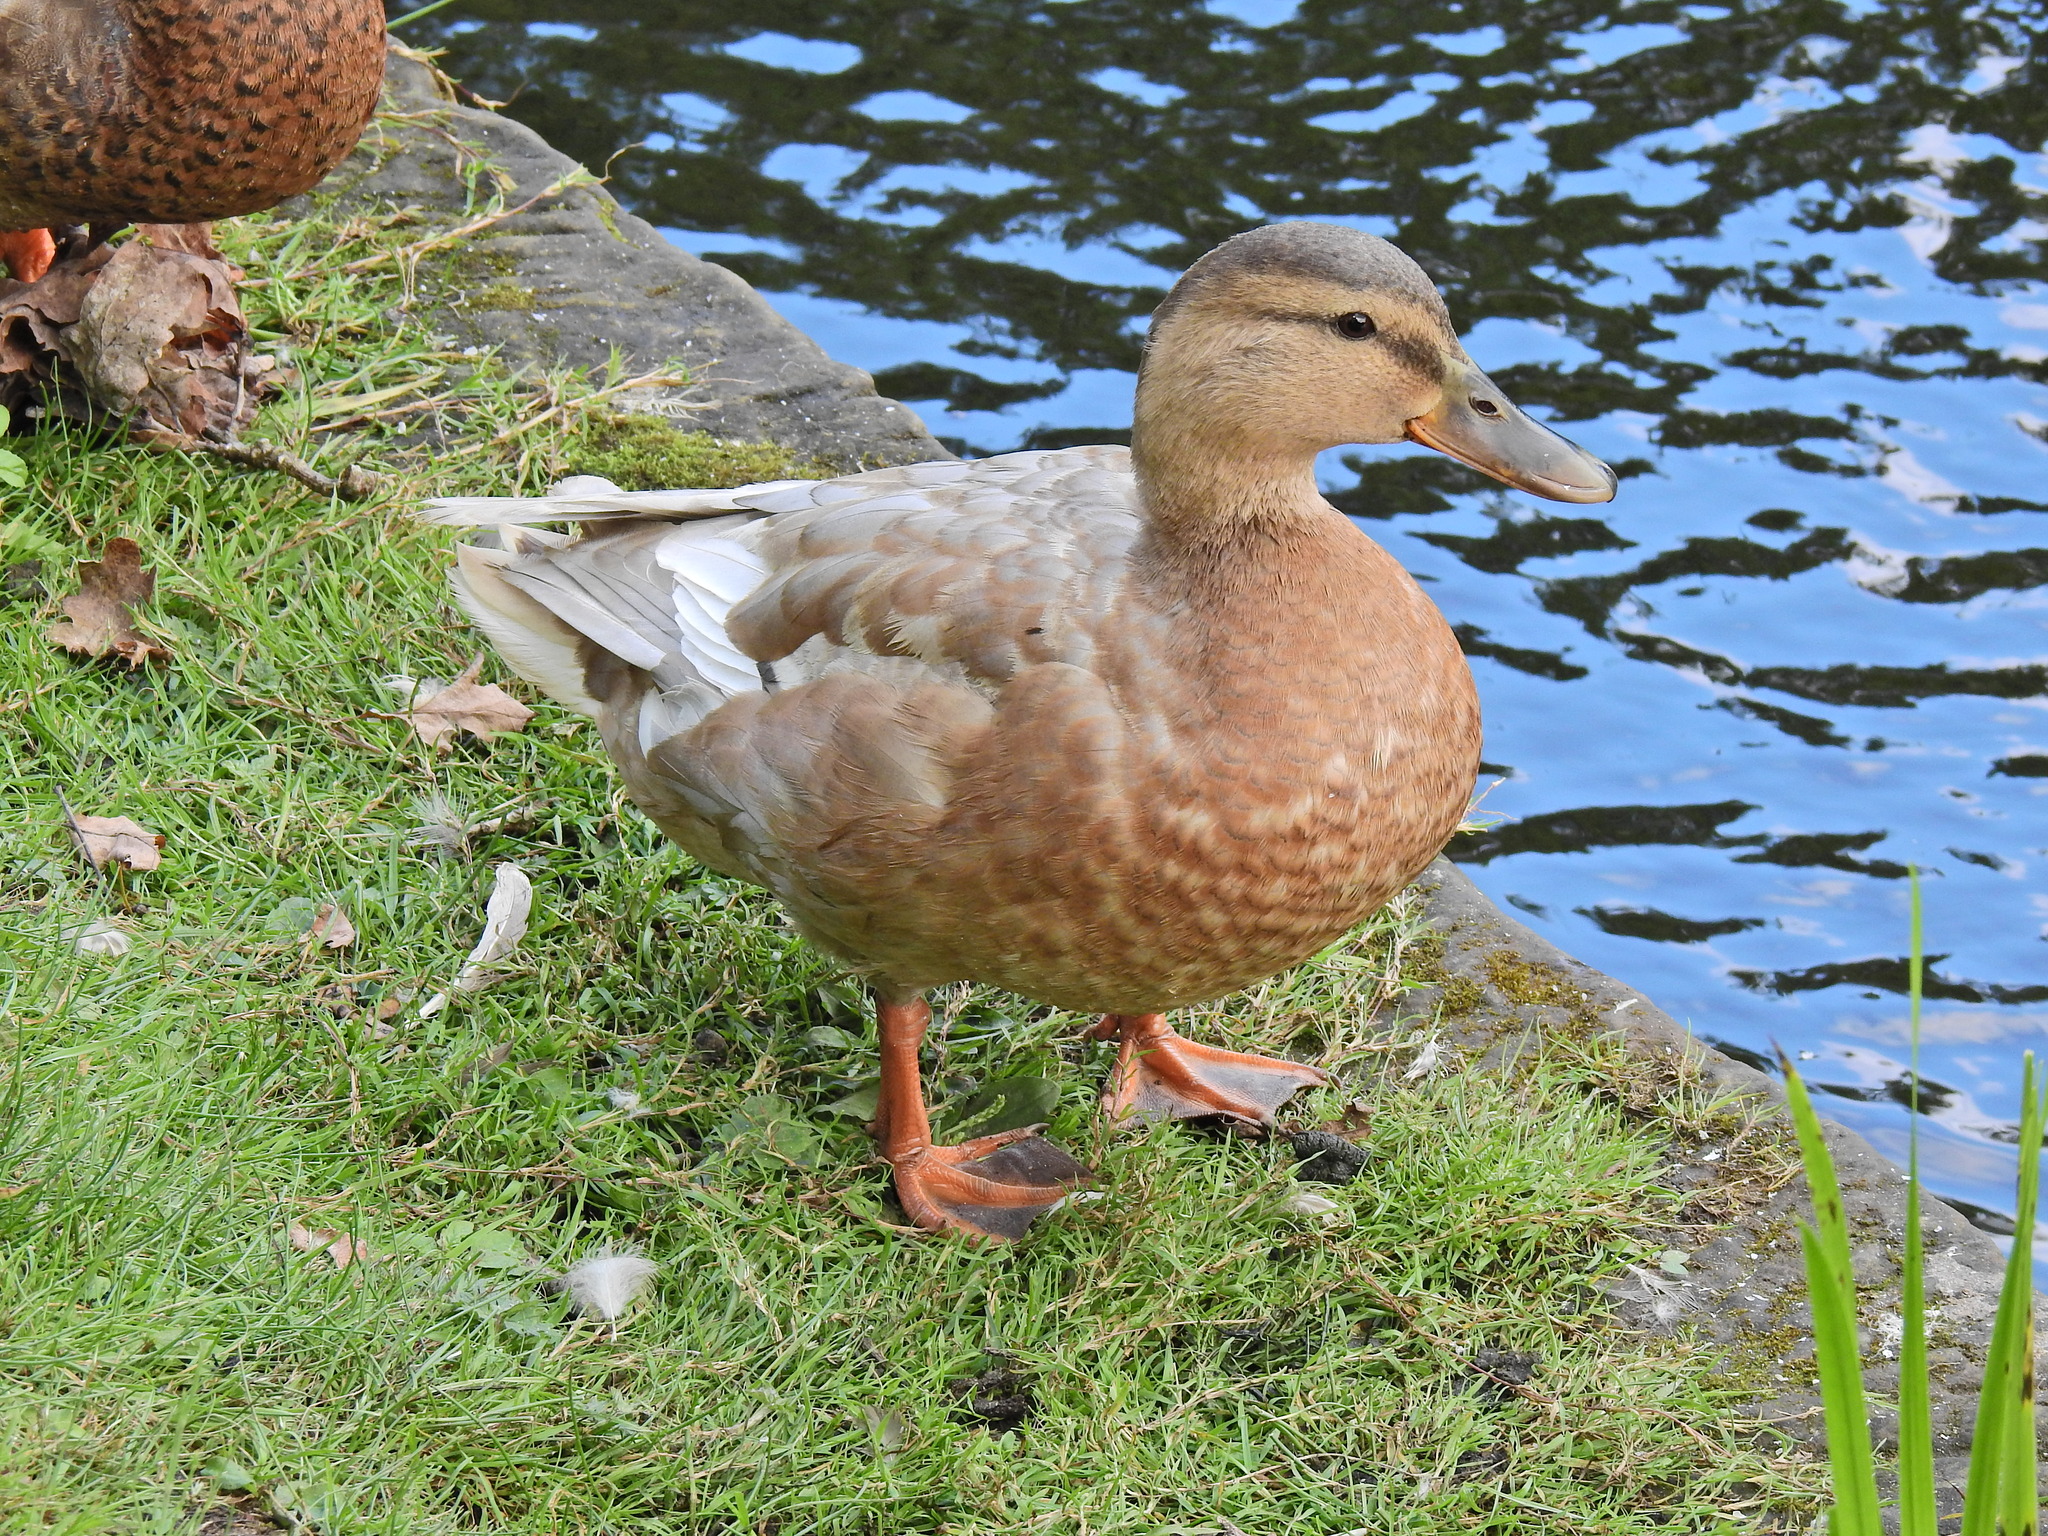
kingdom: Animalia
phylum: Chordata
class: Aves
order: Anseriformes
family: Anatidae
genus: Anas
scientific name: Anas platyrhynchos
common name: Mallard
